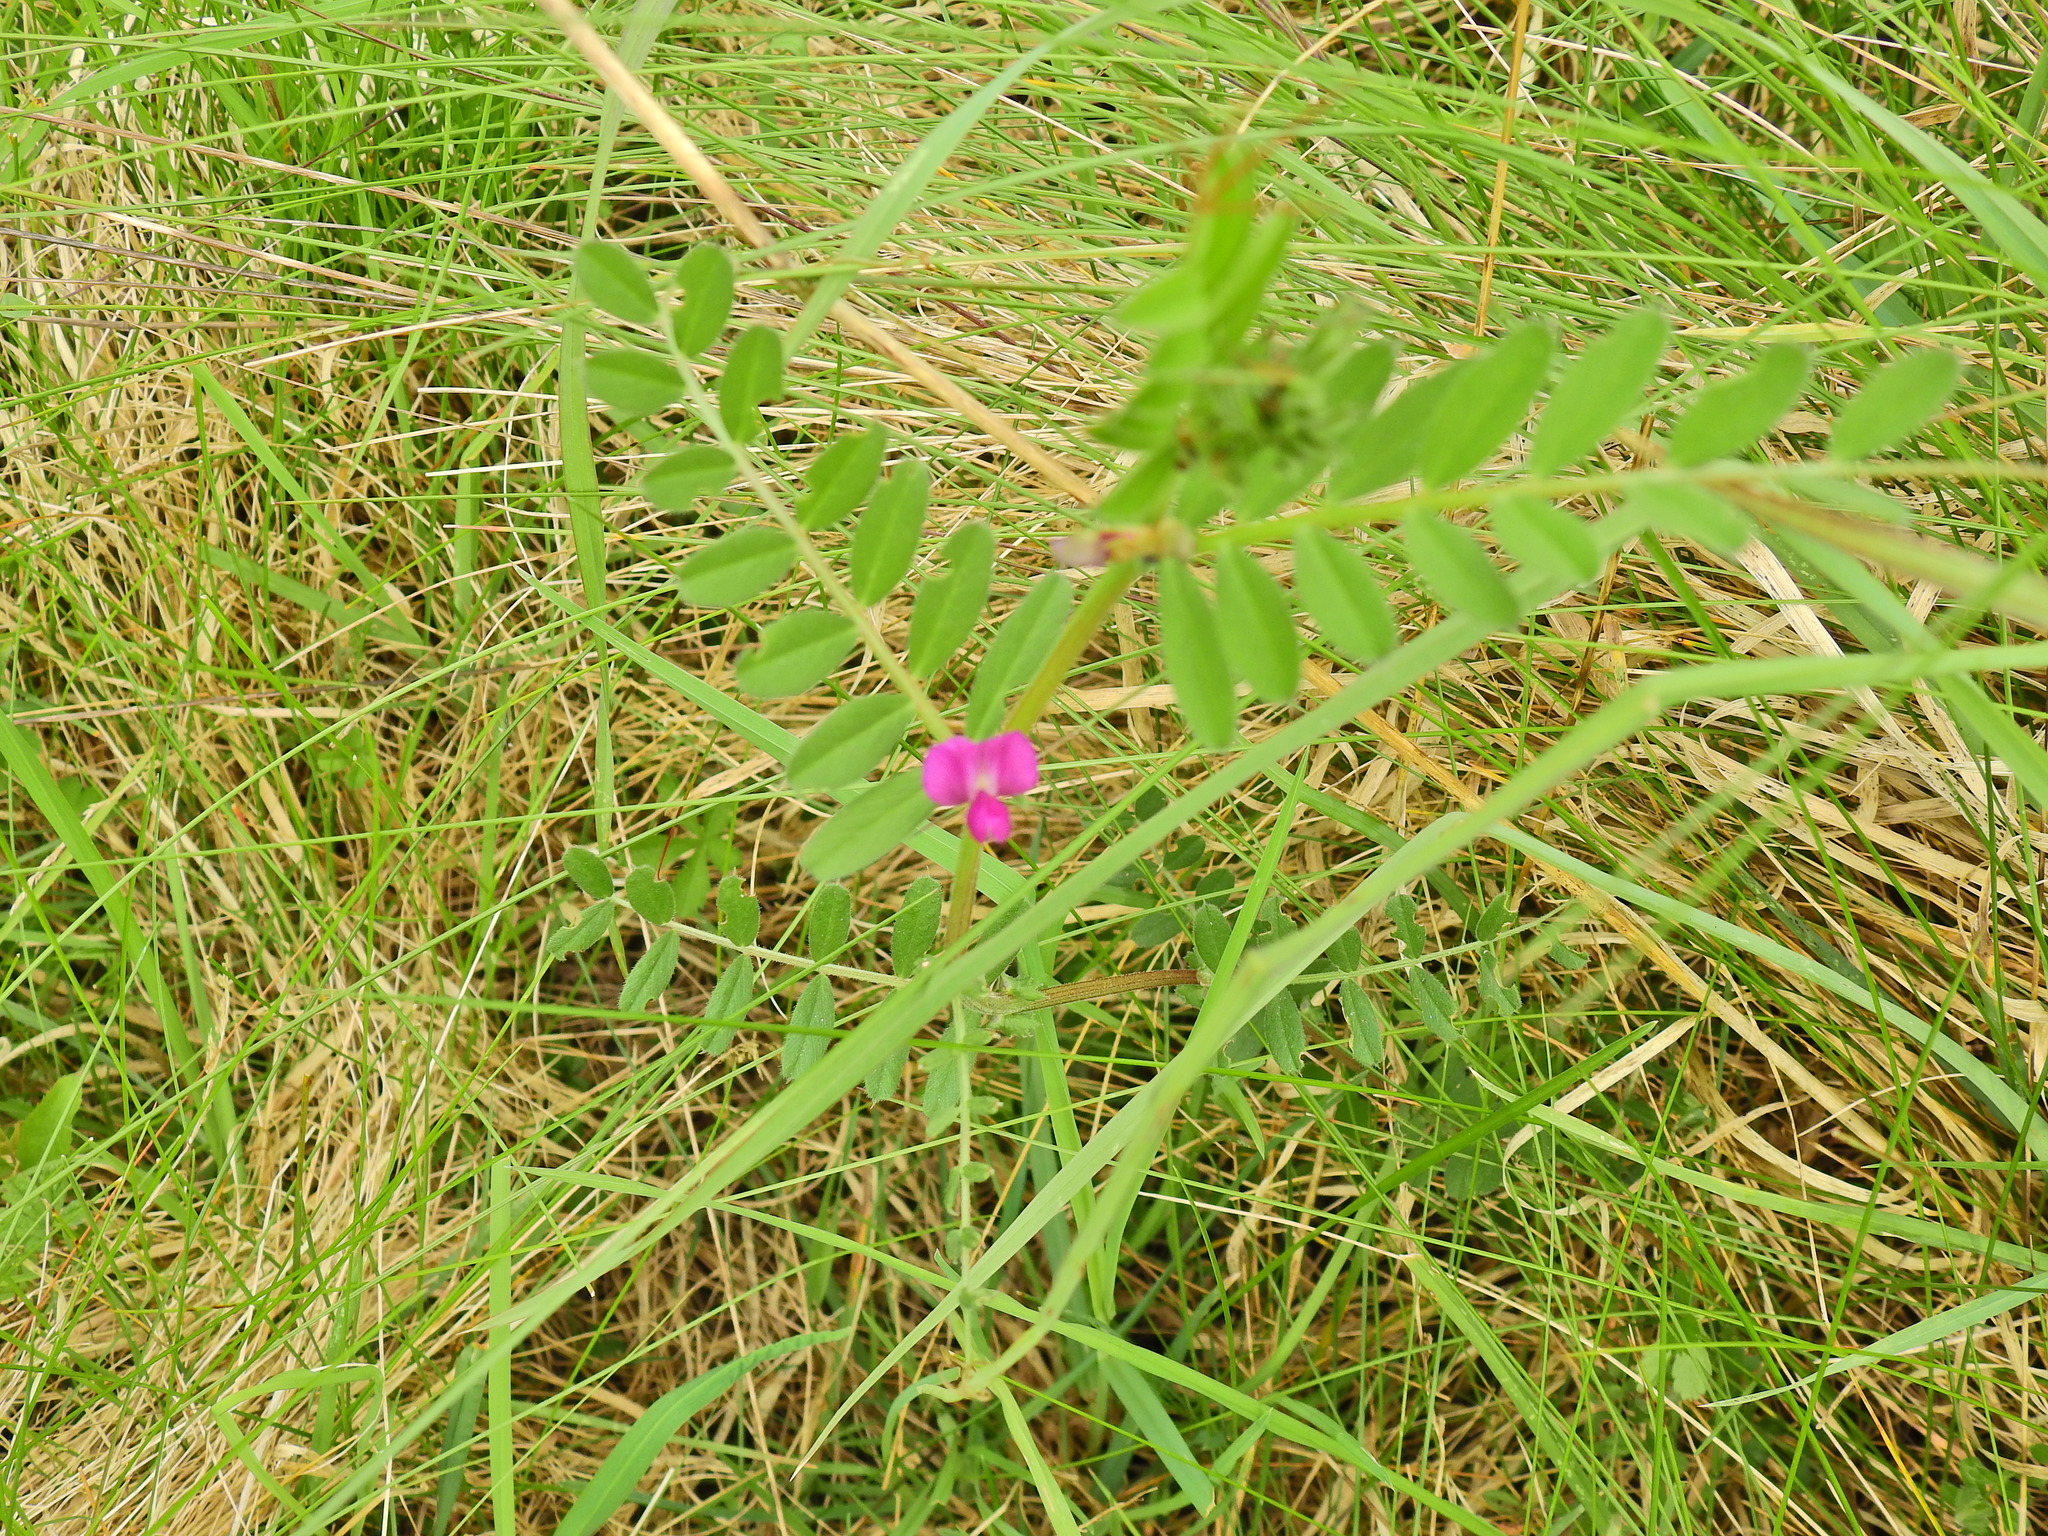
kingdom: Plantae
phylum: Tracheophyta
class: Magnoliopsida
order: Fabales
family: Fabaceae
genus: Vicia
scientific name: Vicia sativa
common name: Garden vetch
